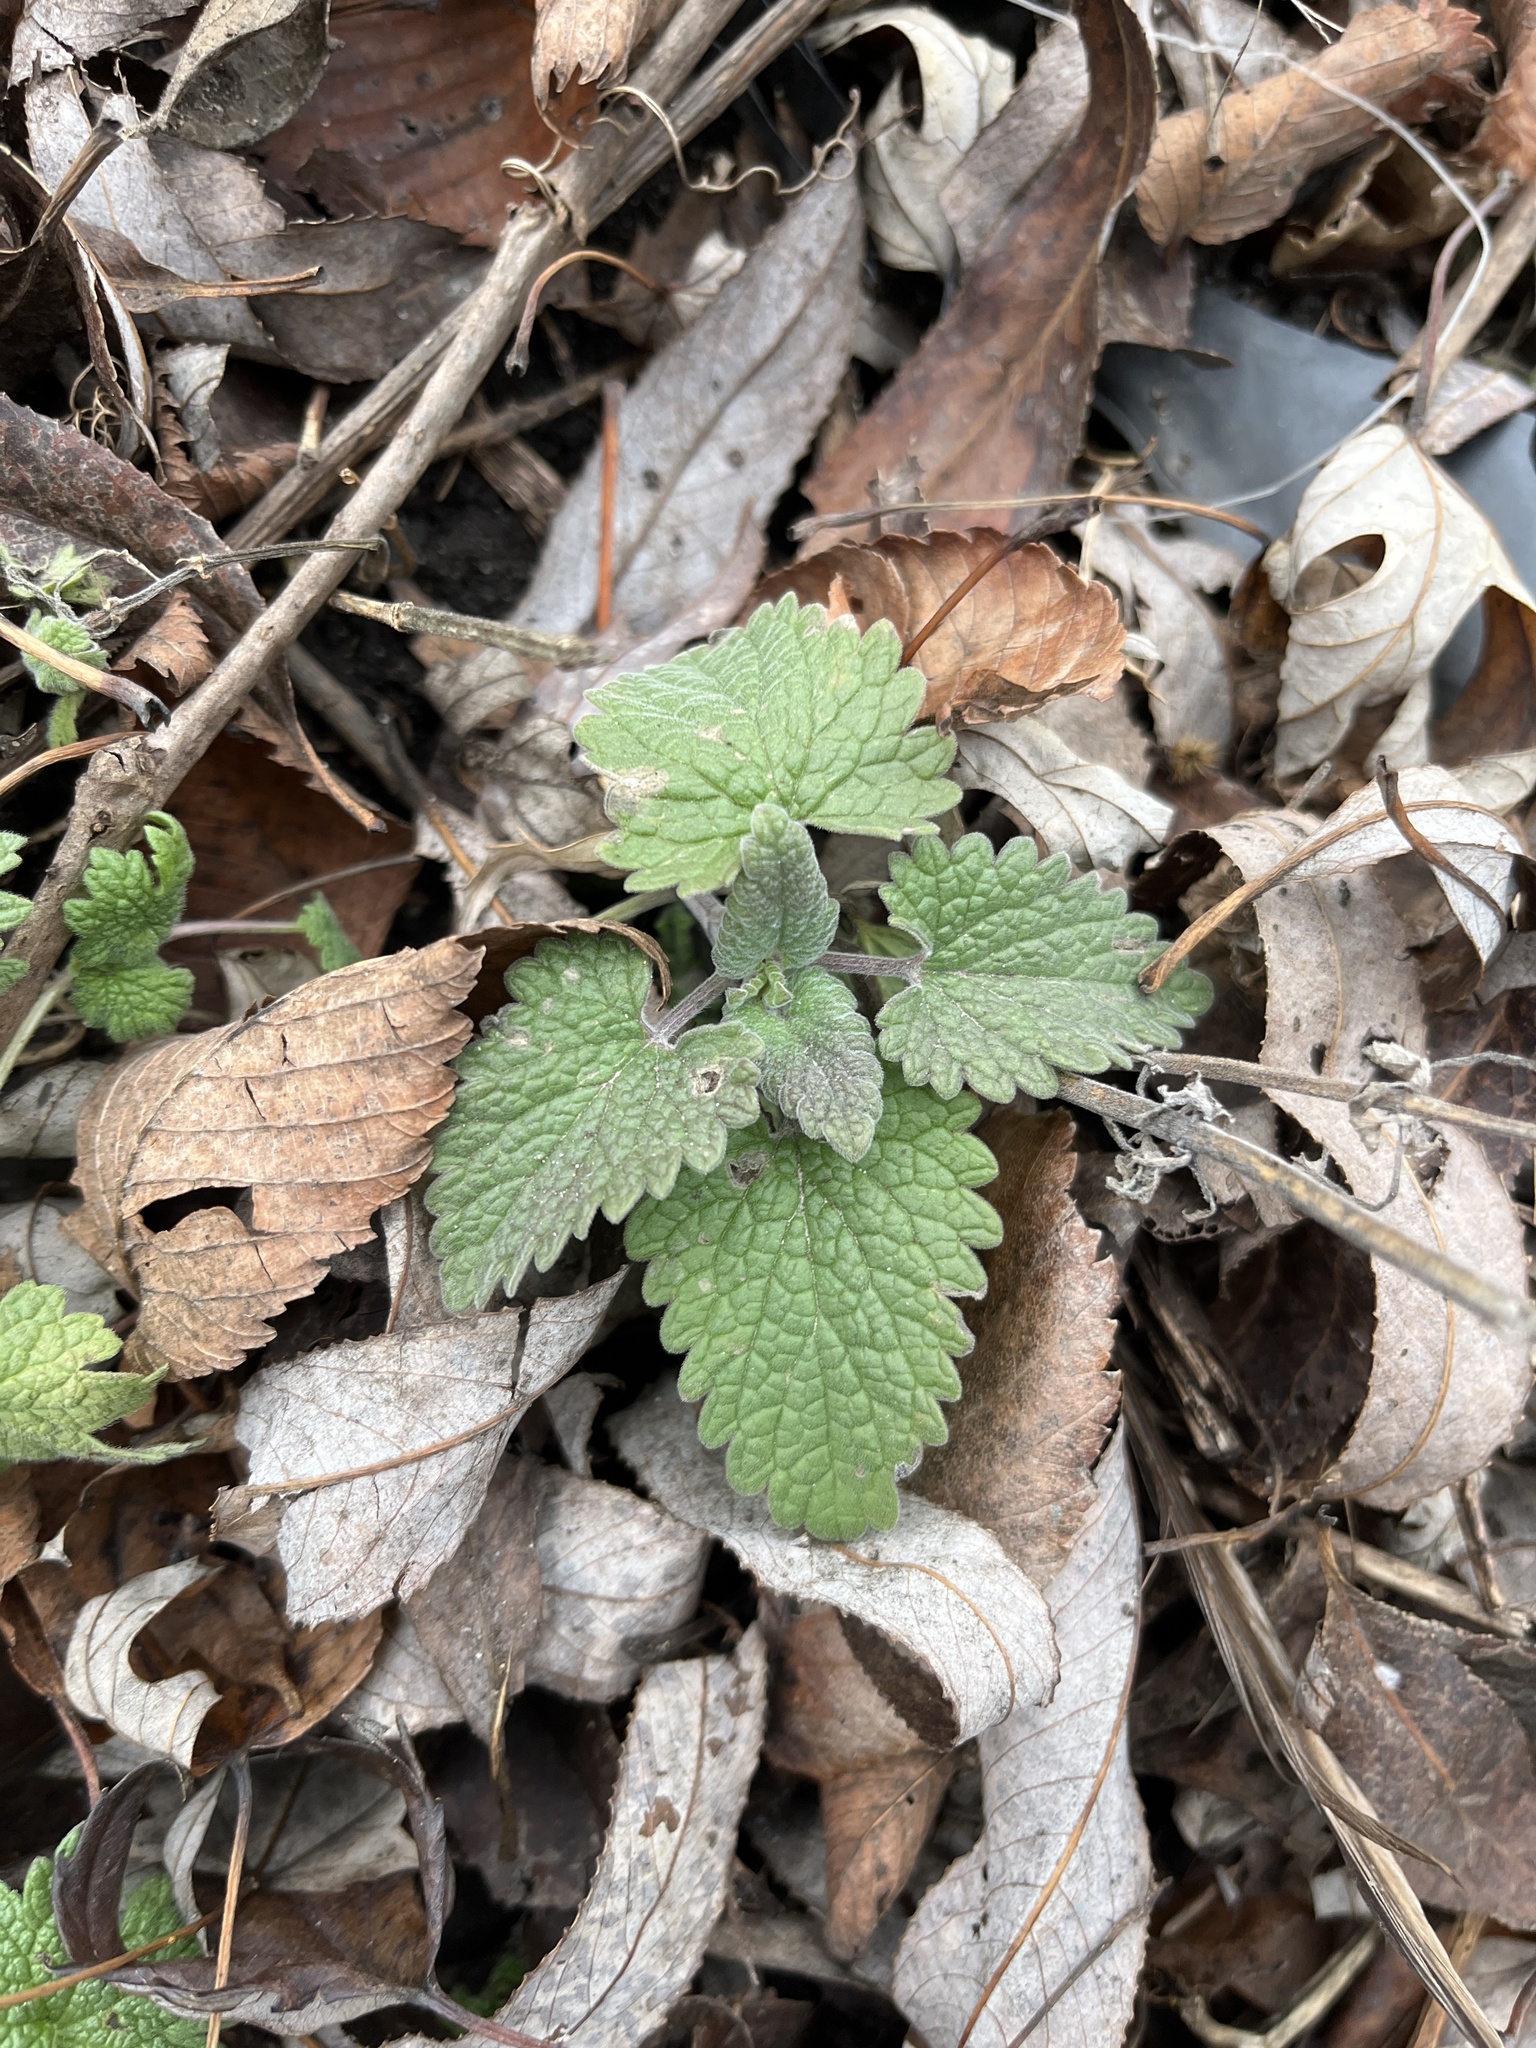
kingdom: Plantae
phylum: Tracheophyta
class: Magnoliopsida
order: Lamiales
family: Lamiaceae
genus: Nepeta
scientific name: Nepeta cataria
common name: Catnip
